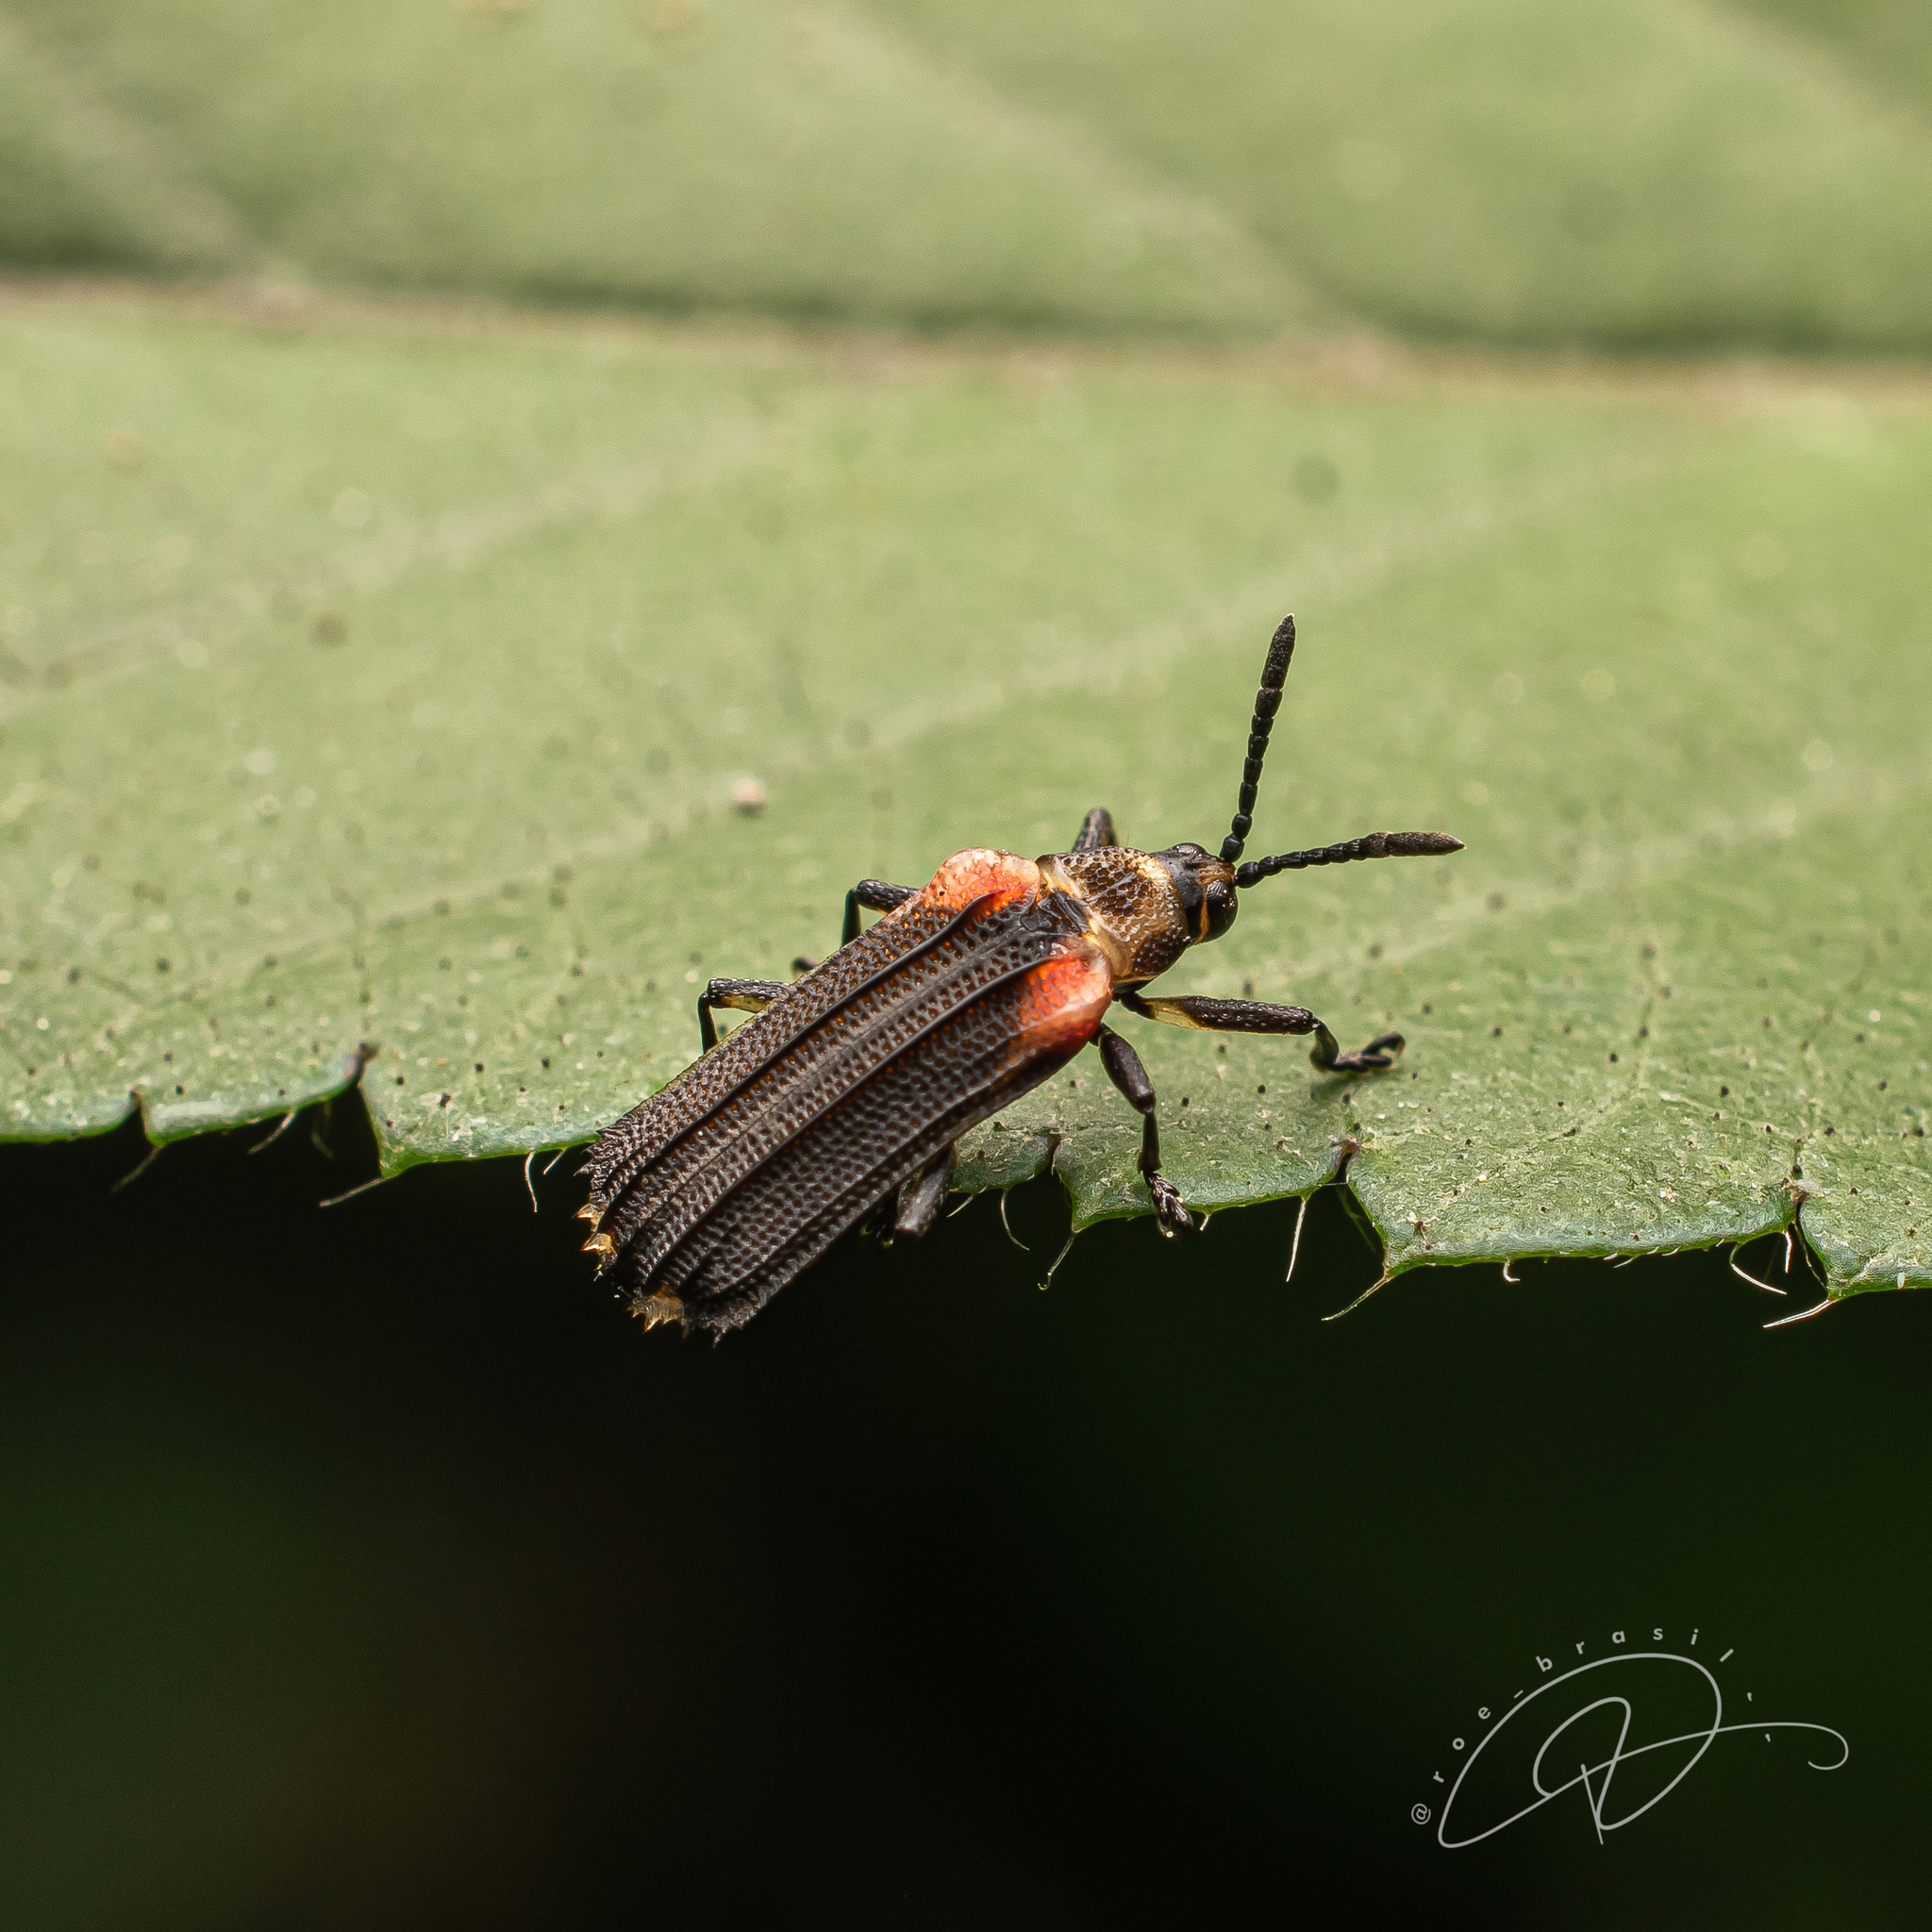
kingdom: Animalia
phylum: Arthropoda
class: Insecta
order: Coleoptera
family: Chrysomelidae
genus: Heterispa
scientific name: Heterispa vinula
